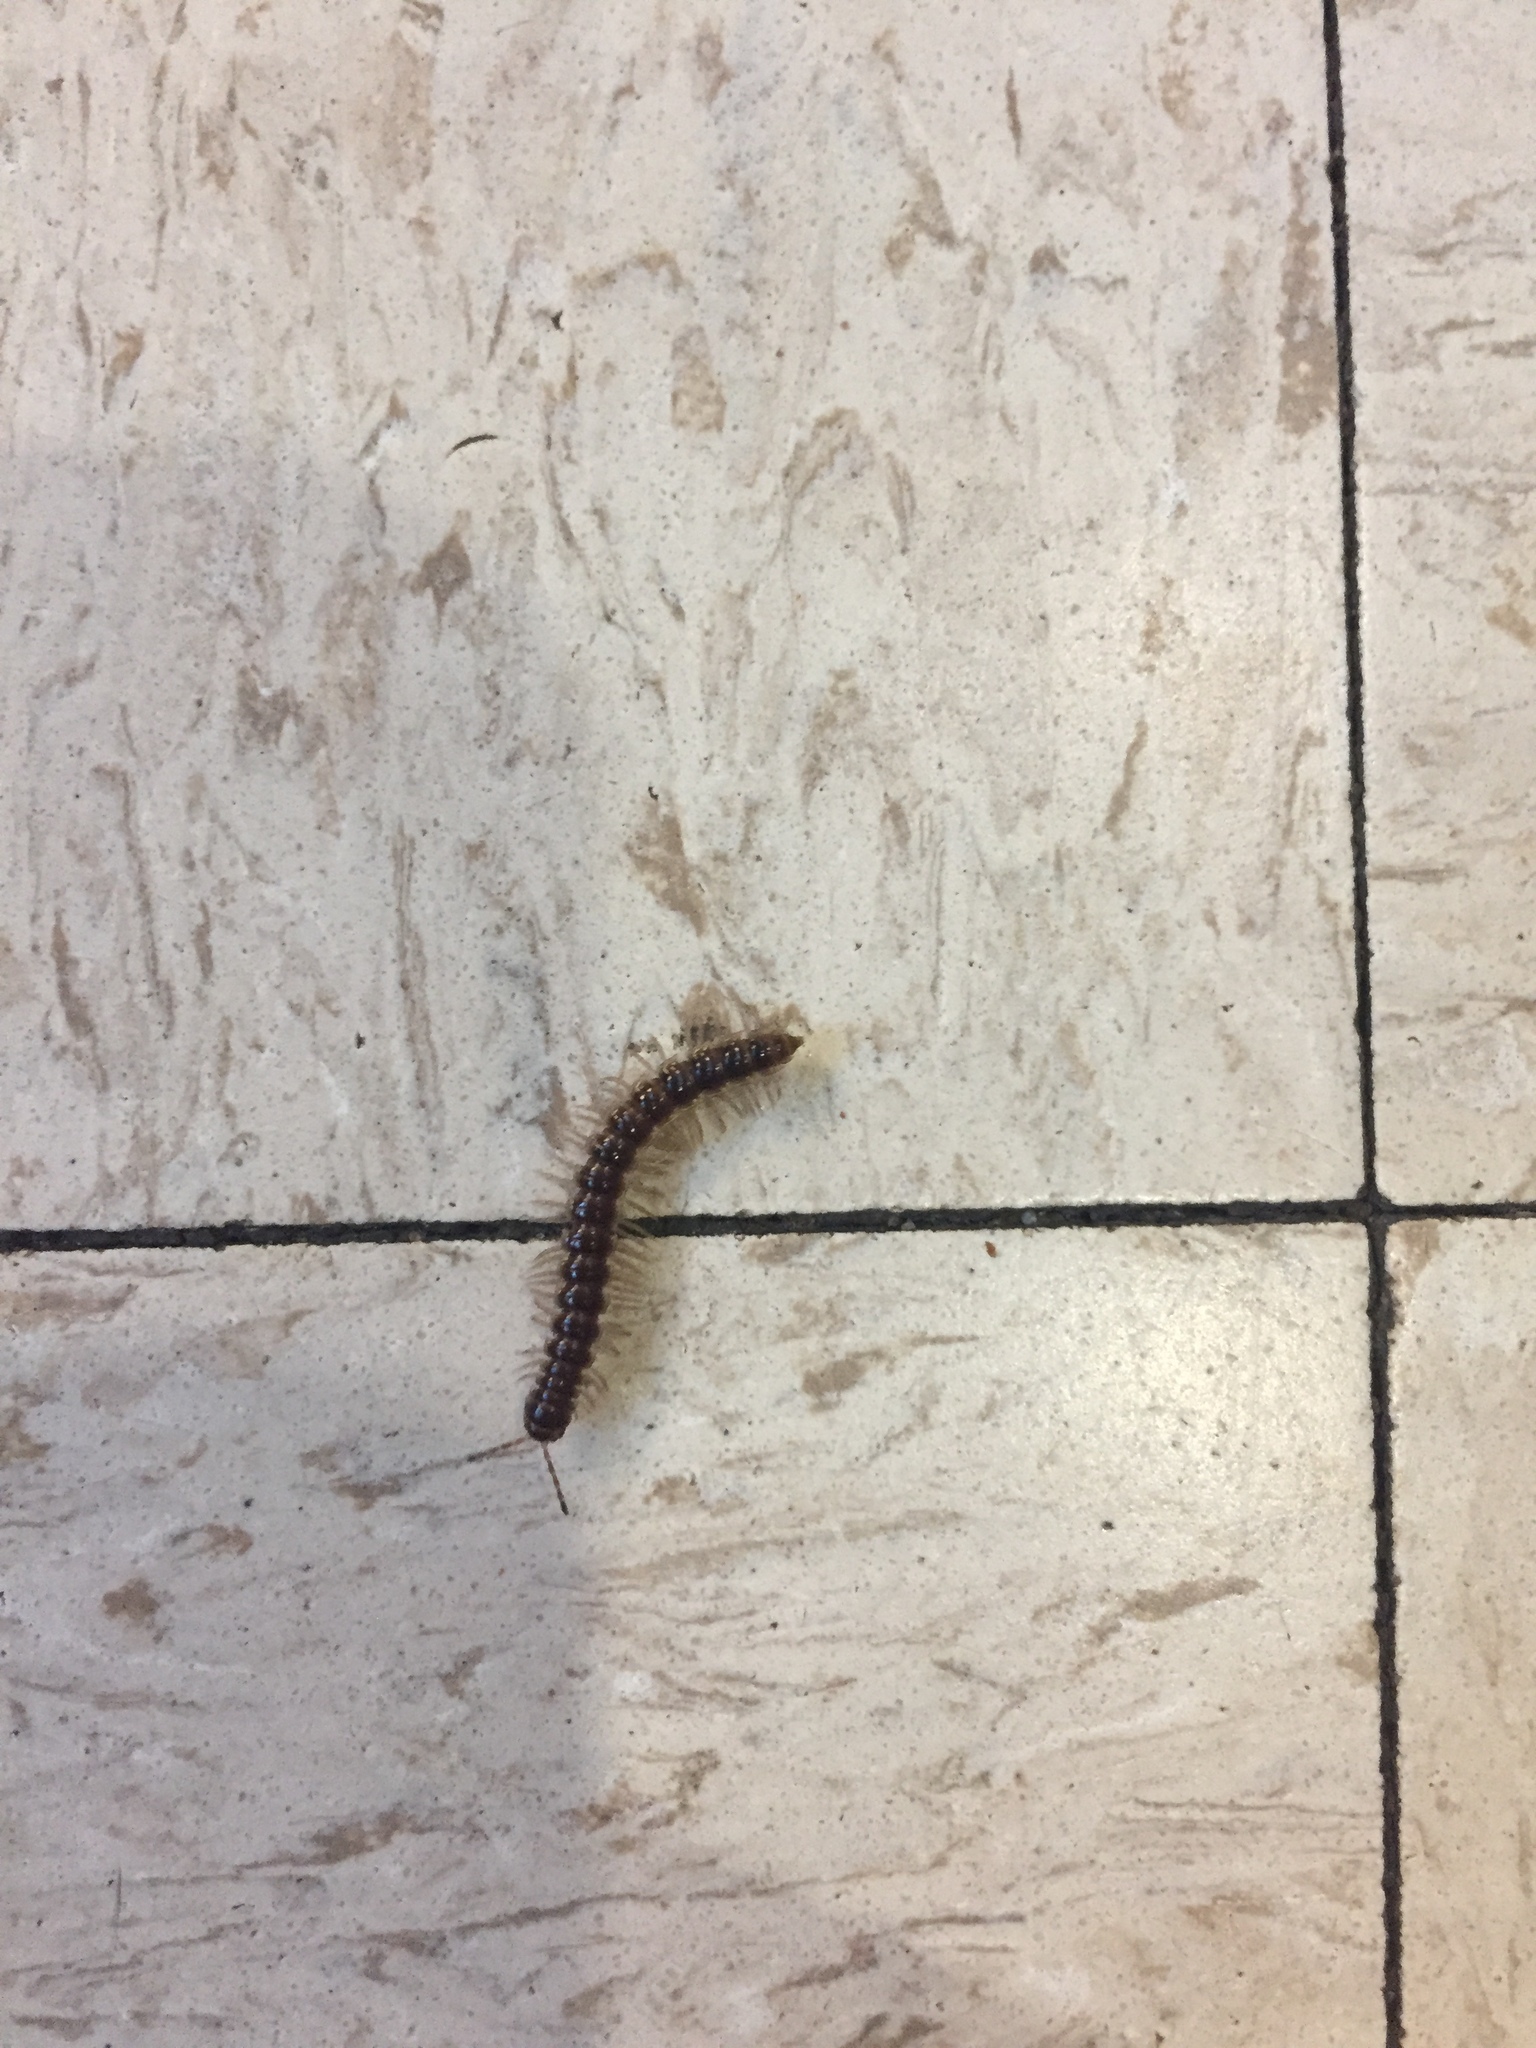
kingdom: Animalia
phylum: Arthropoda
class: Diplopoda
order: Polydesmida
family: Paradoxosomatidae
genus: Oxidus
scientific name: Oxidus gracilis
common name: Greenhouse millipede
